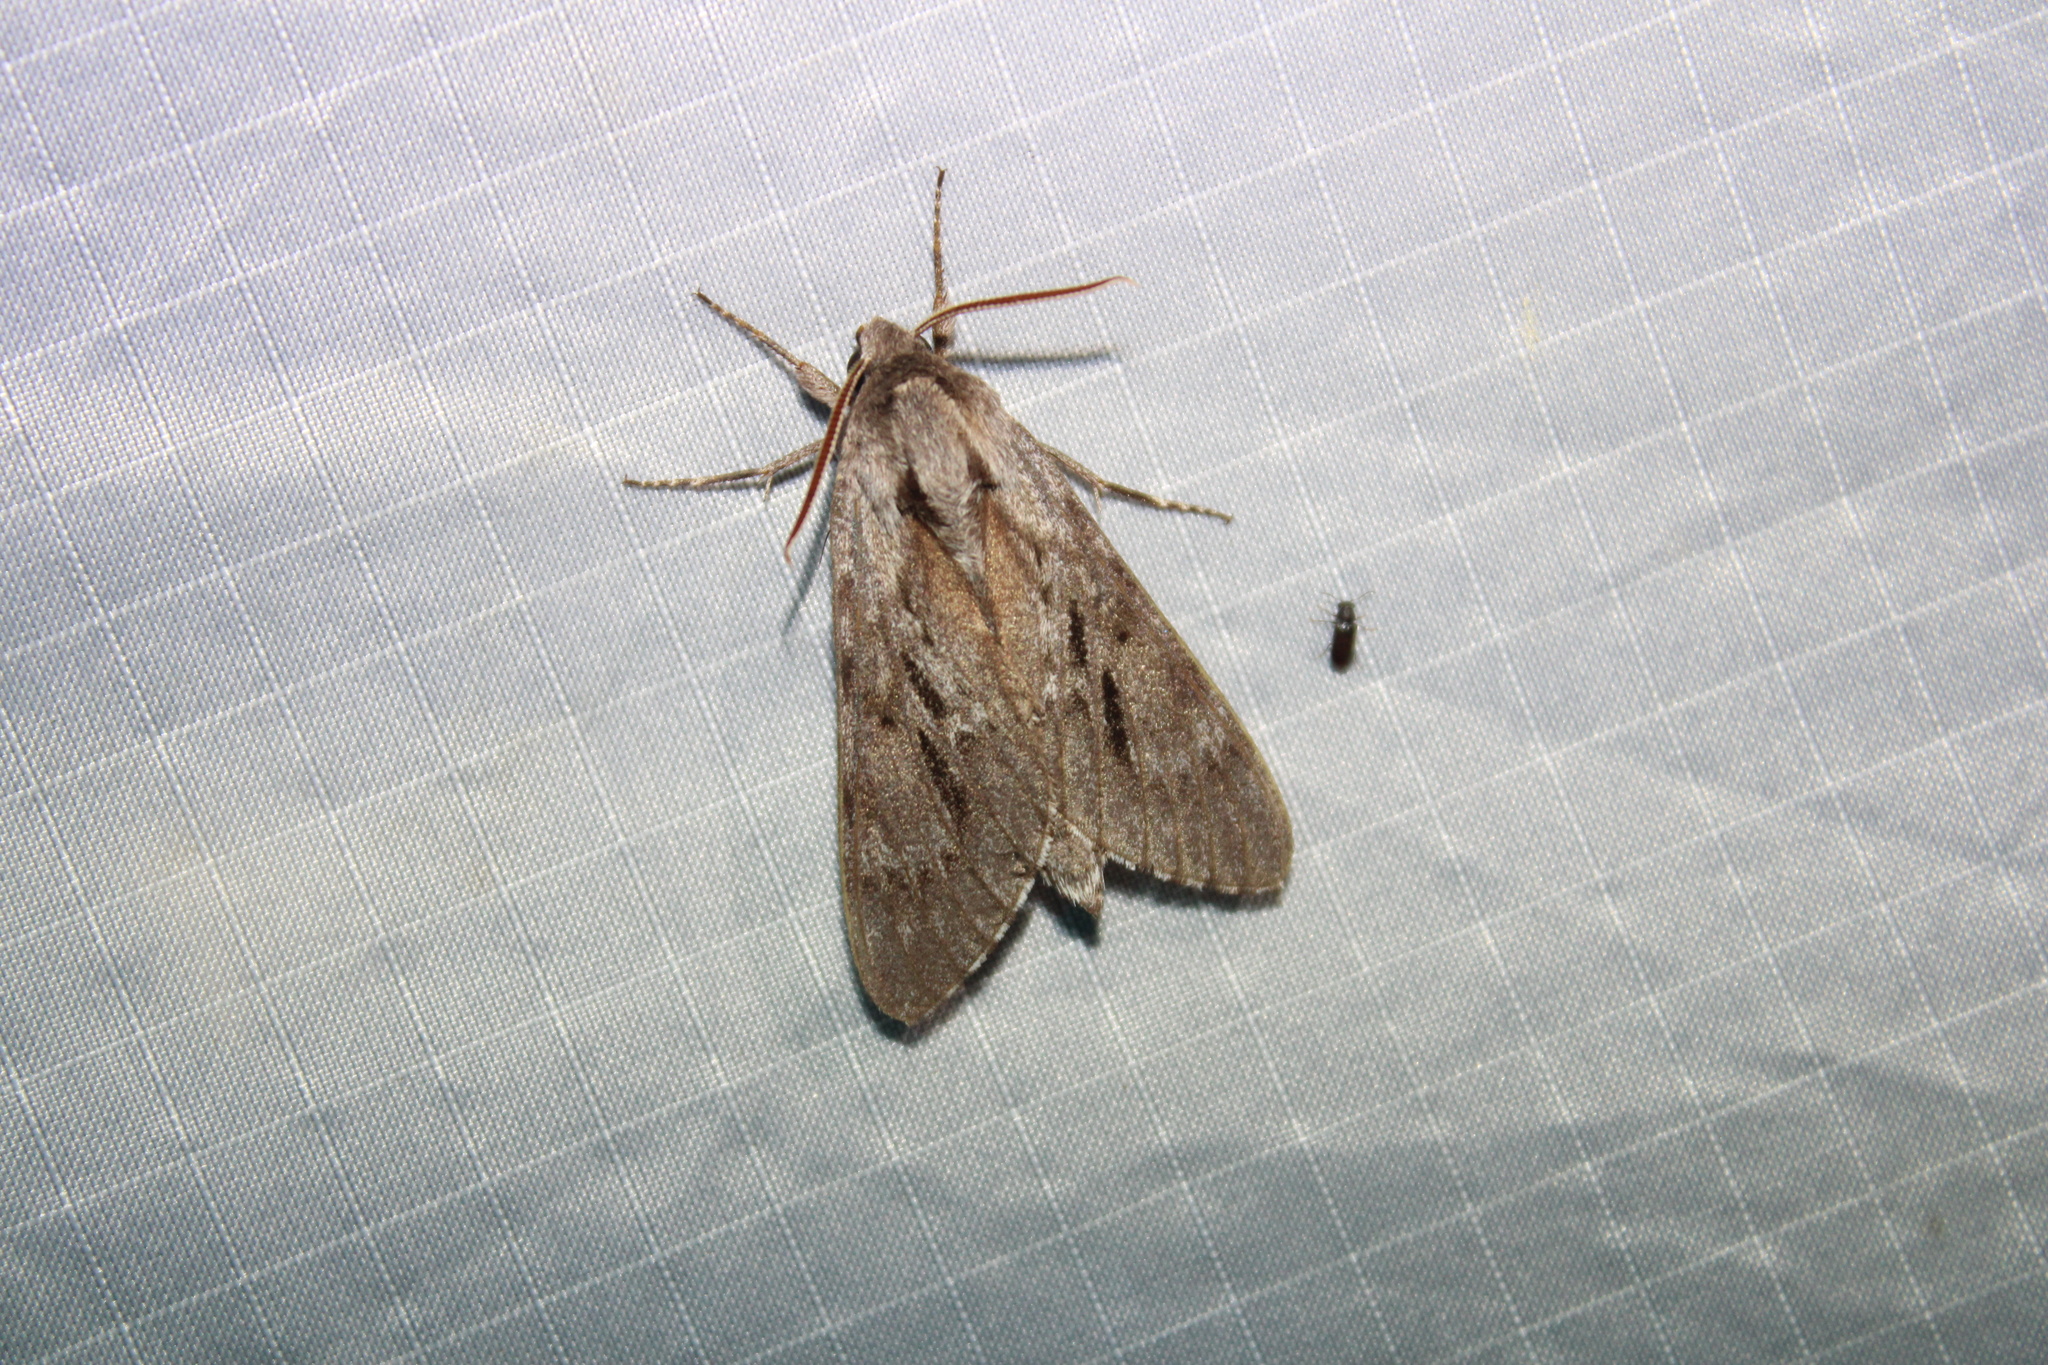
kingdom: Animalia
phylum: Arthropoda
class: Insecta
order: Lepidoptera
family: Sphingidae
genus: Lapara
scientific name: Lapara bombycoides
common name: Northern pine sphinx
